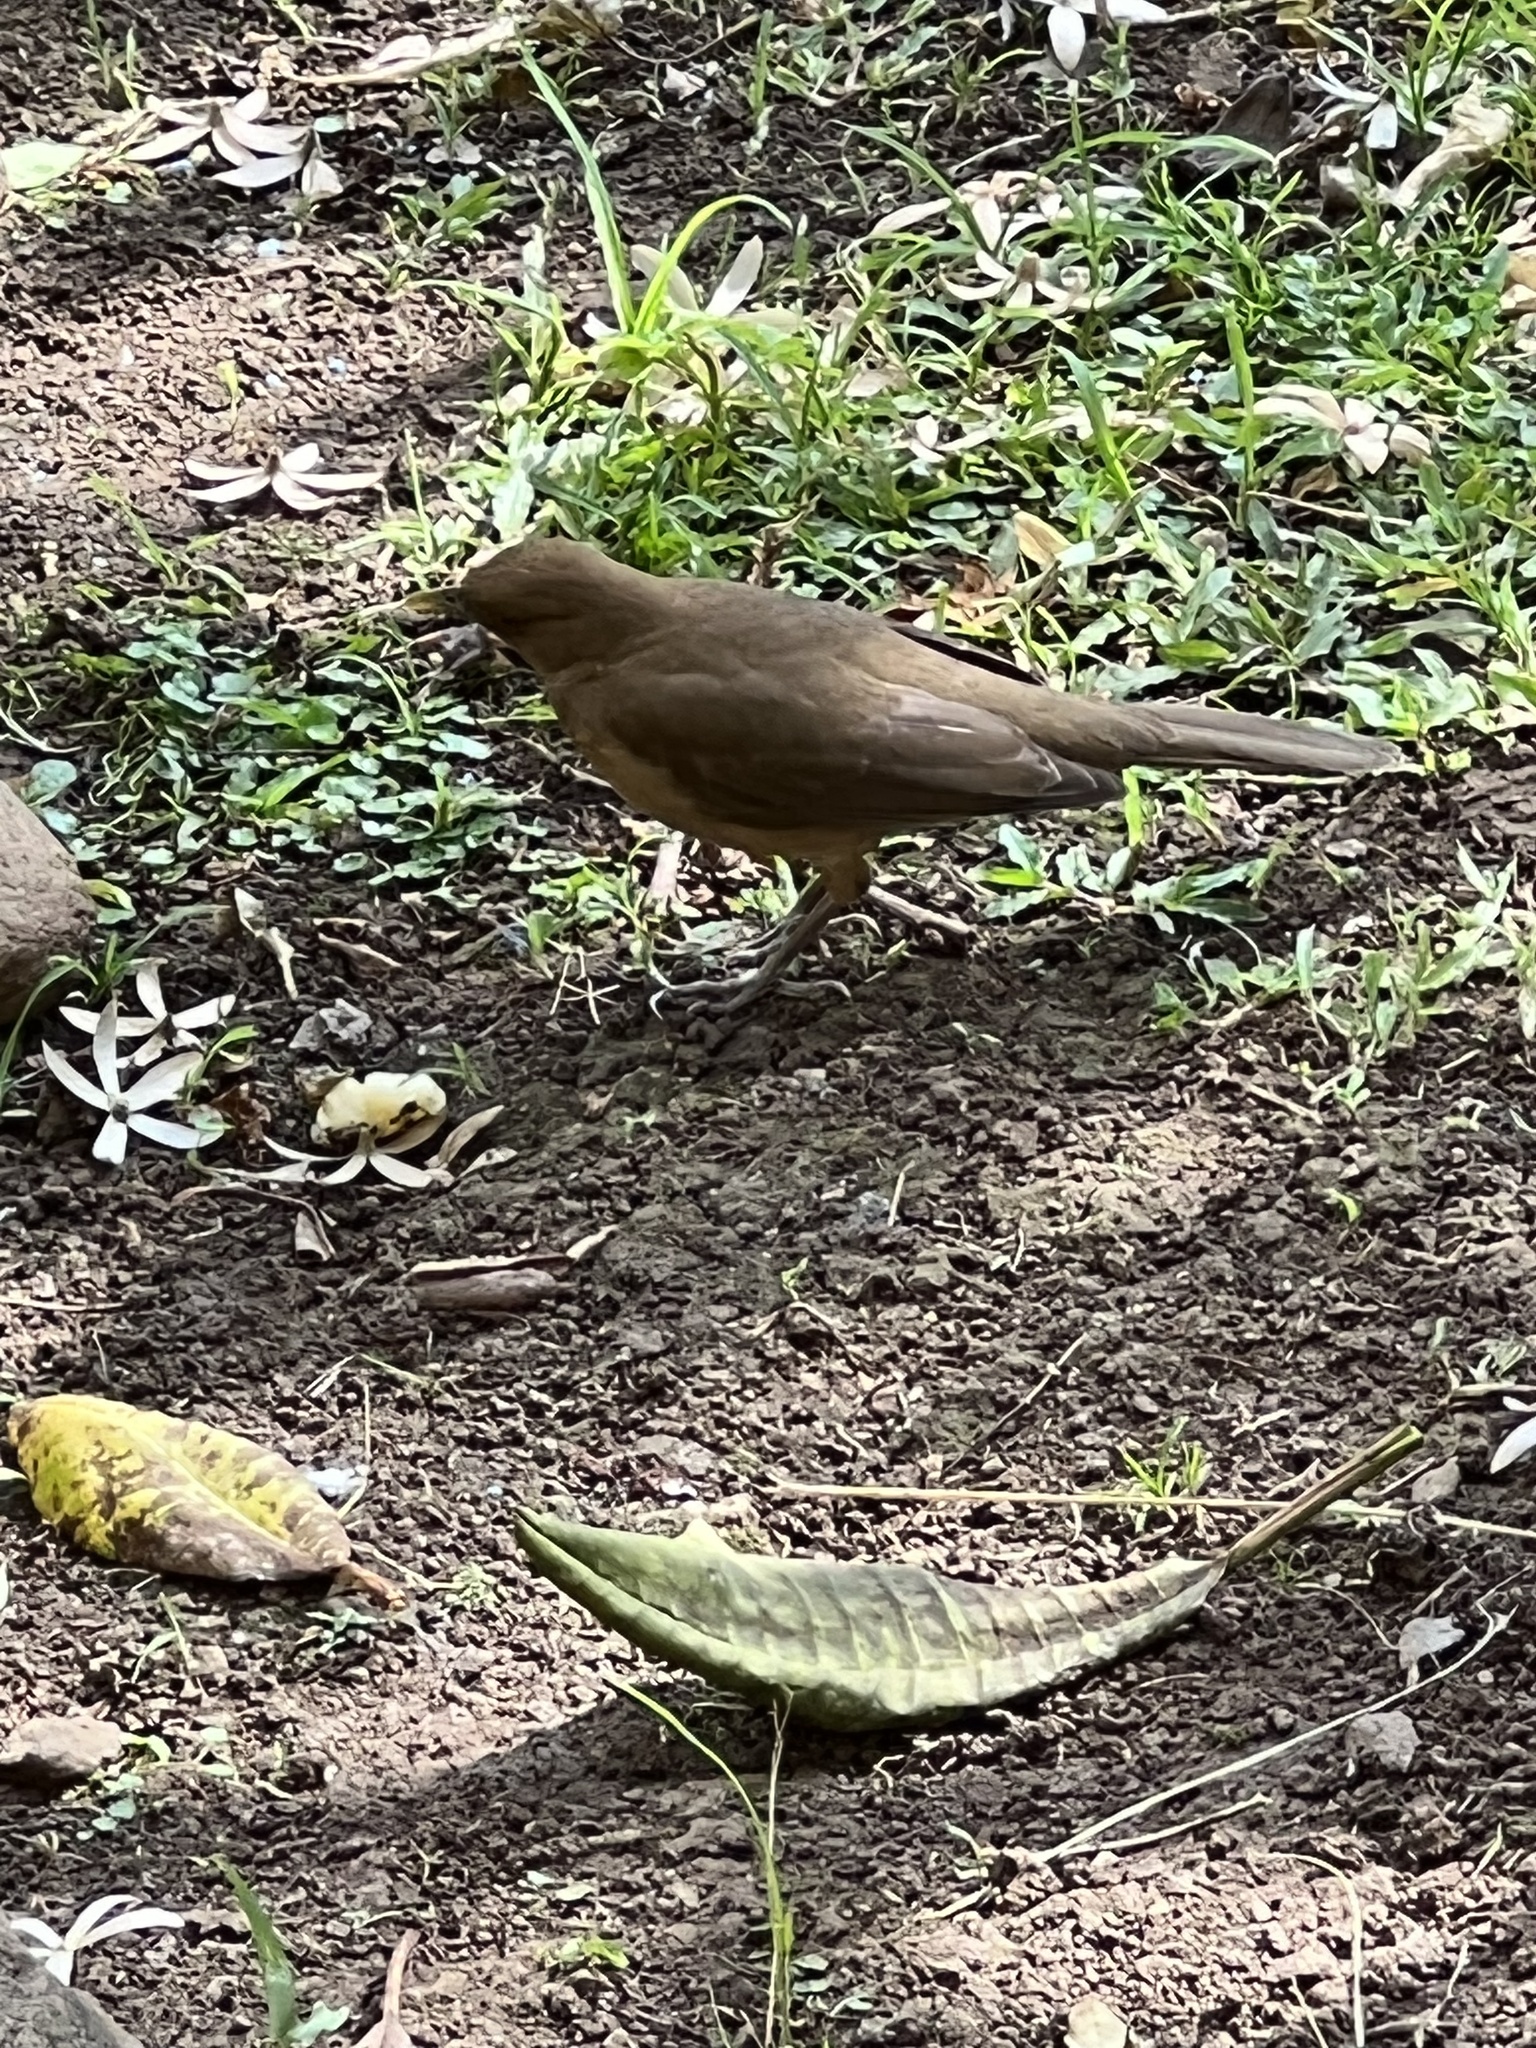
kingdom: Animalia
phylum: Chordata
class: Aves
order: Passeriformes
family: Turdidae
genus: Turdus
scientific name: Turdus grayi
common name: Clay-colored thrush
